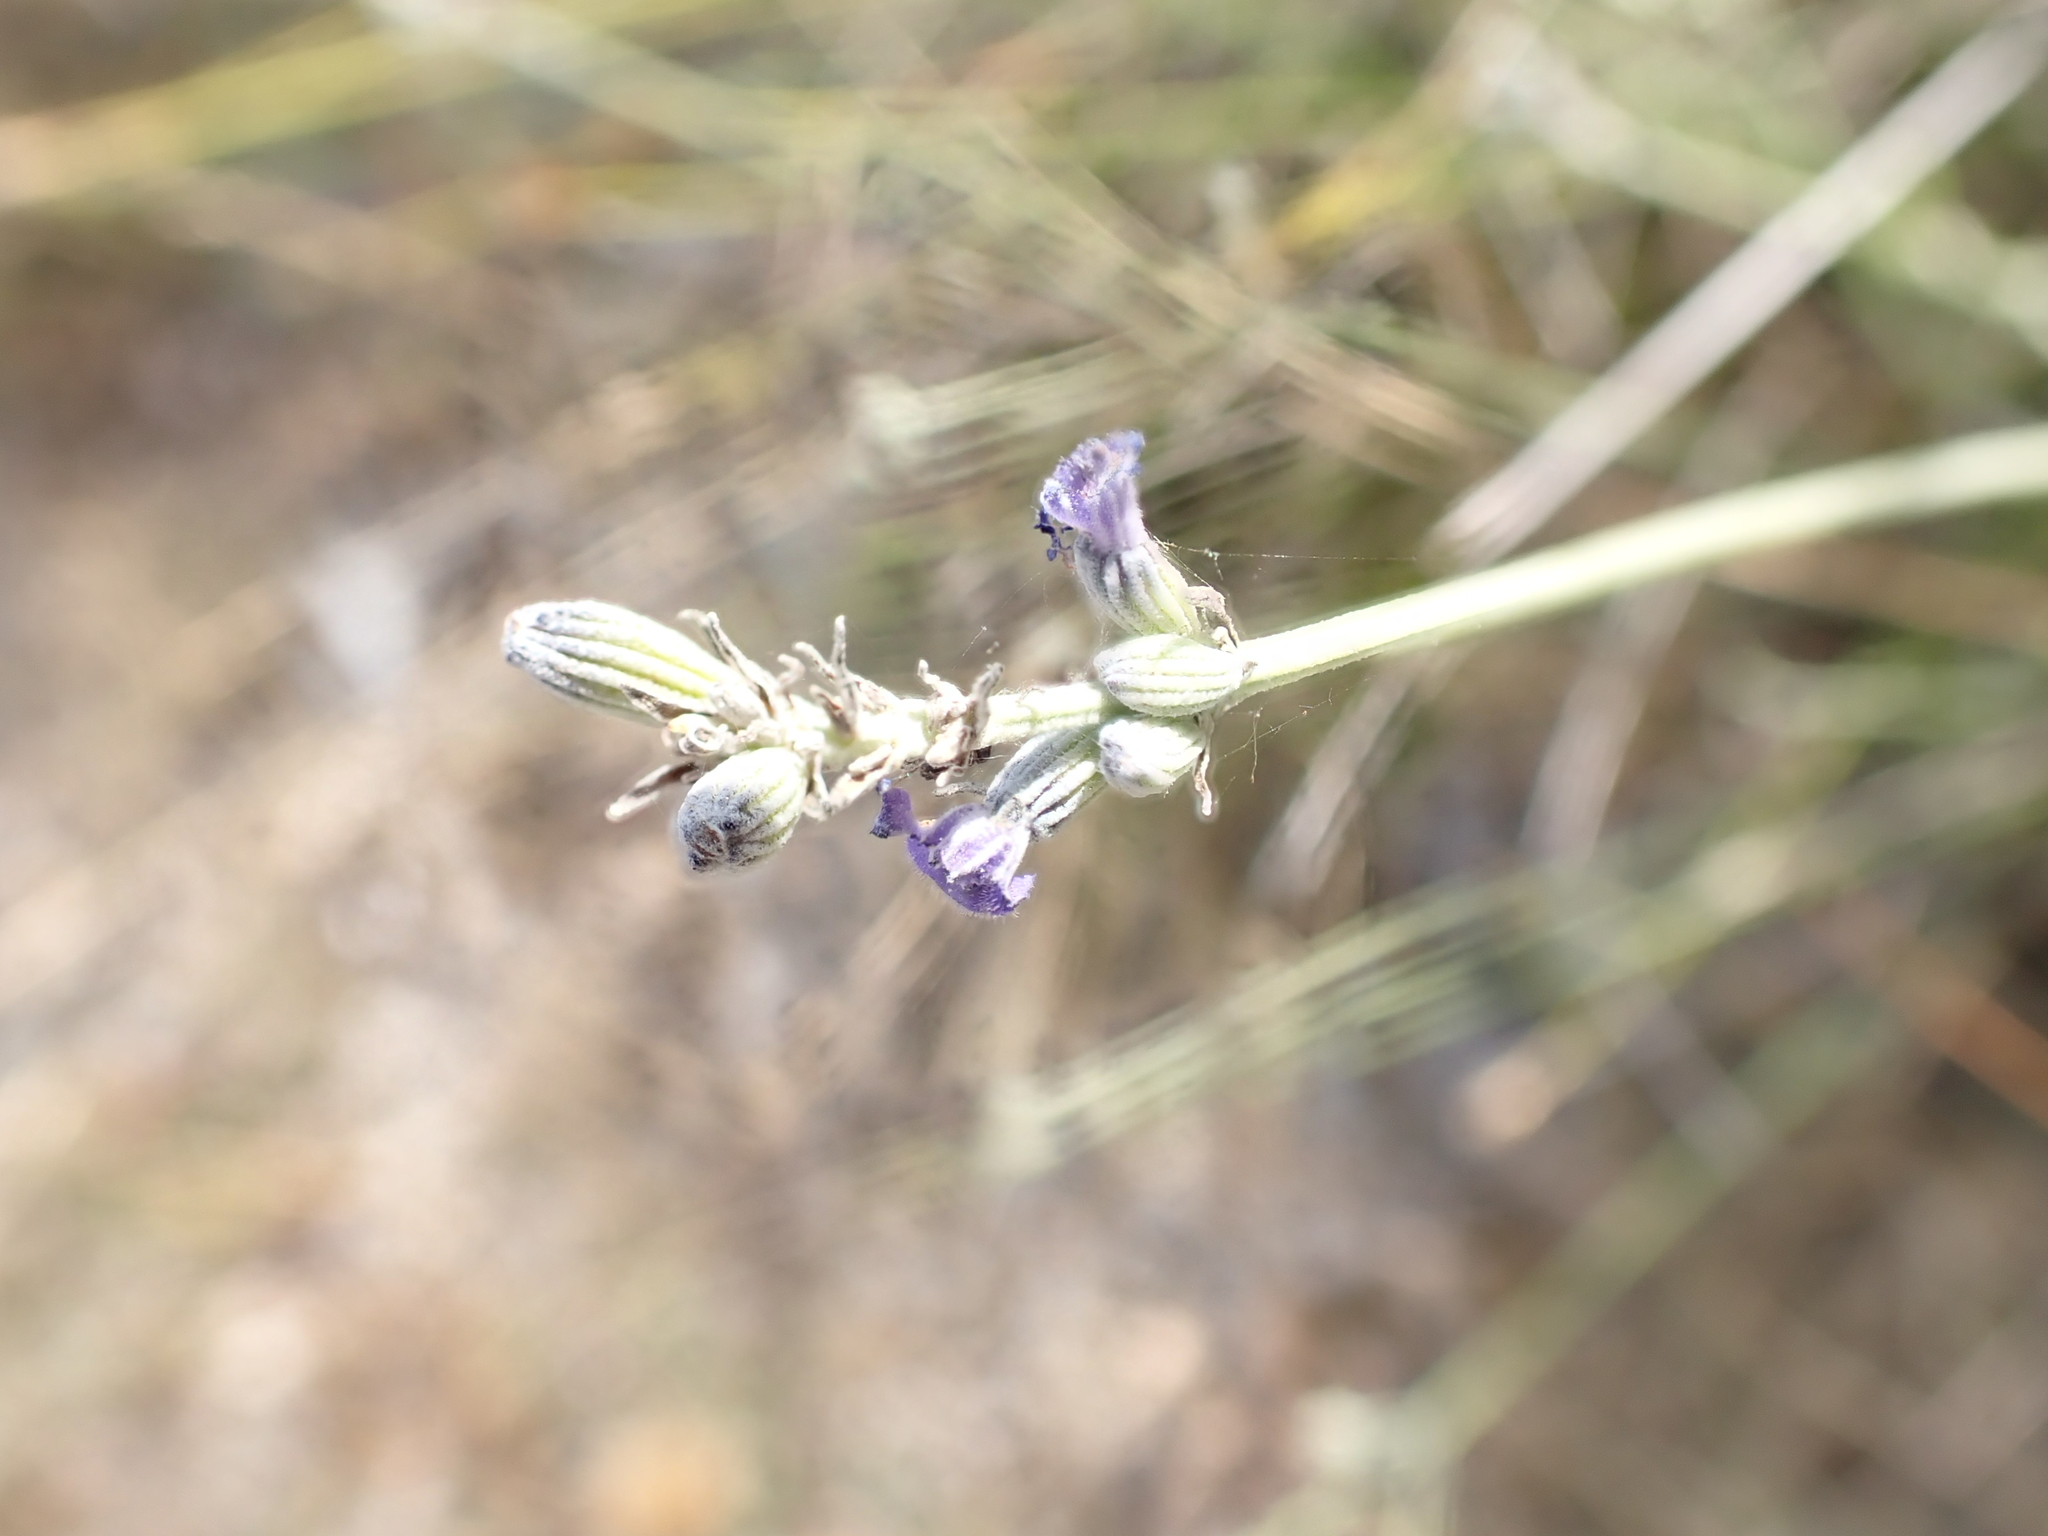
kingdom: Plantae
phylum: Tracheophyta
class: Magnoliopsida
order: Lamiales
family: Lamiaceae
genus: Lavandula
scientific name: Lavandula latifolia
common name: Spike lavendar
